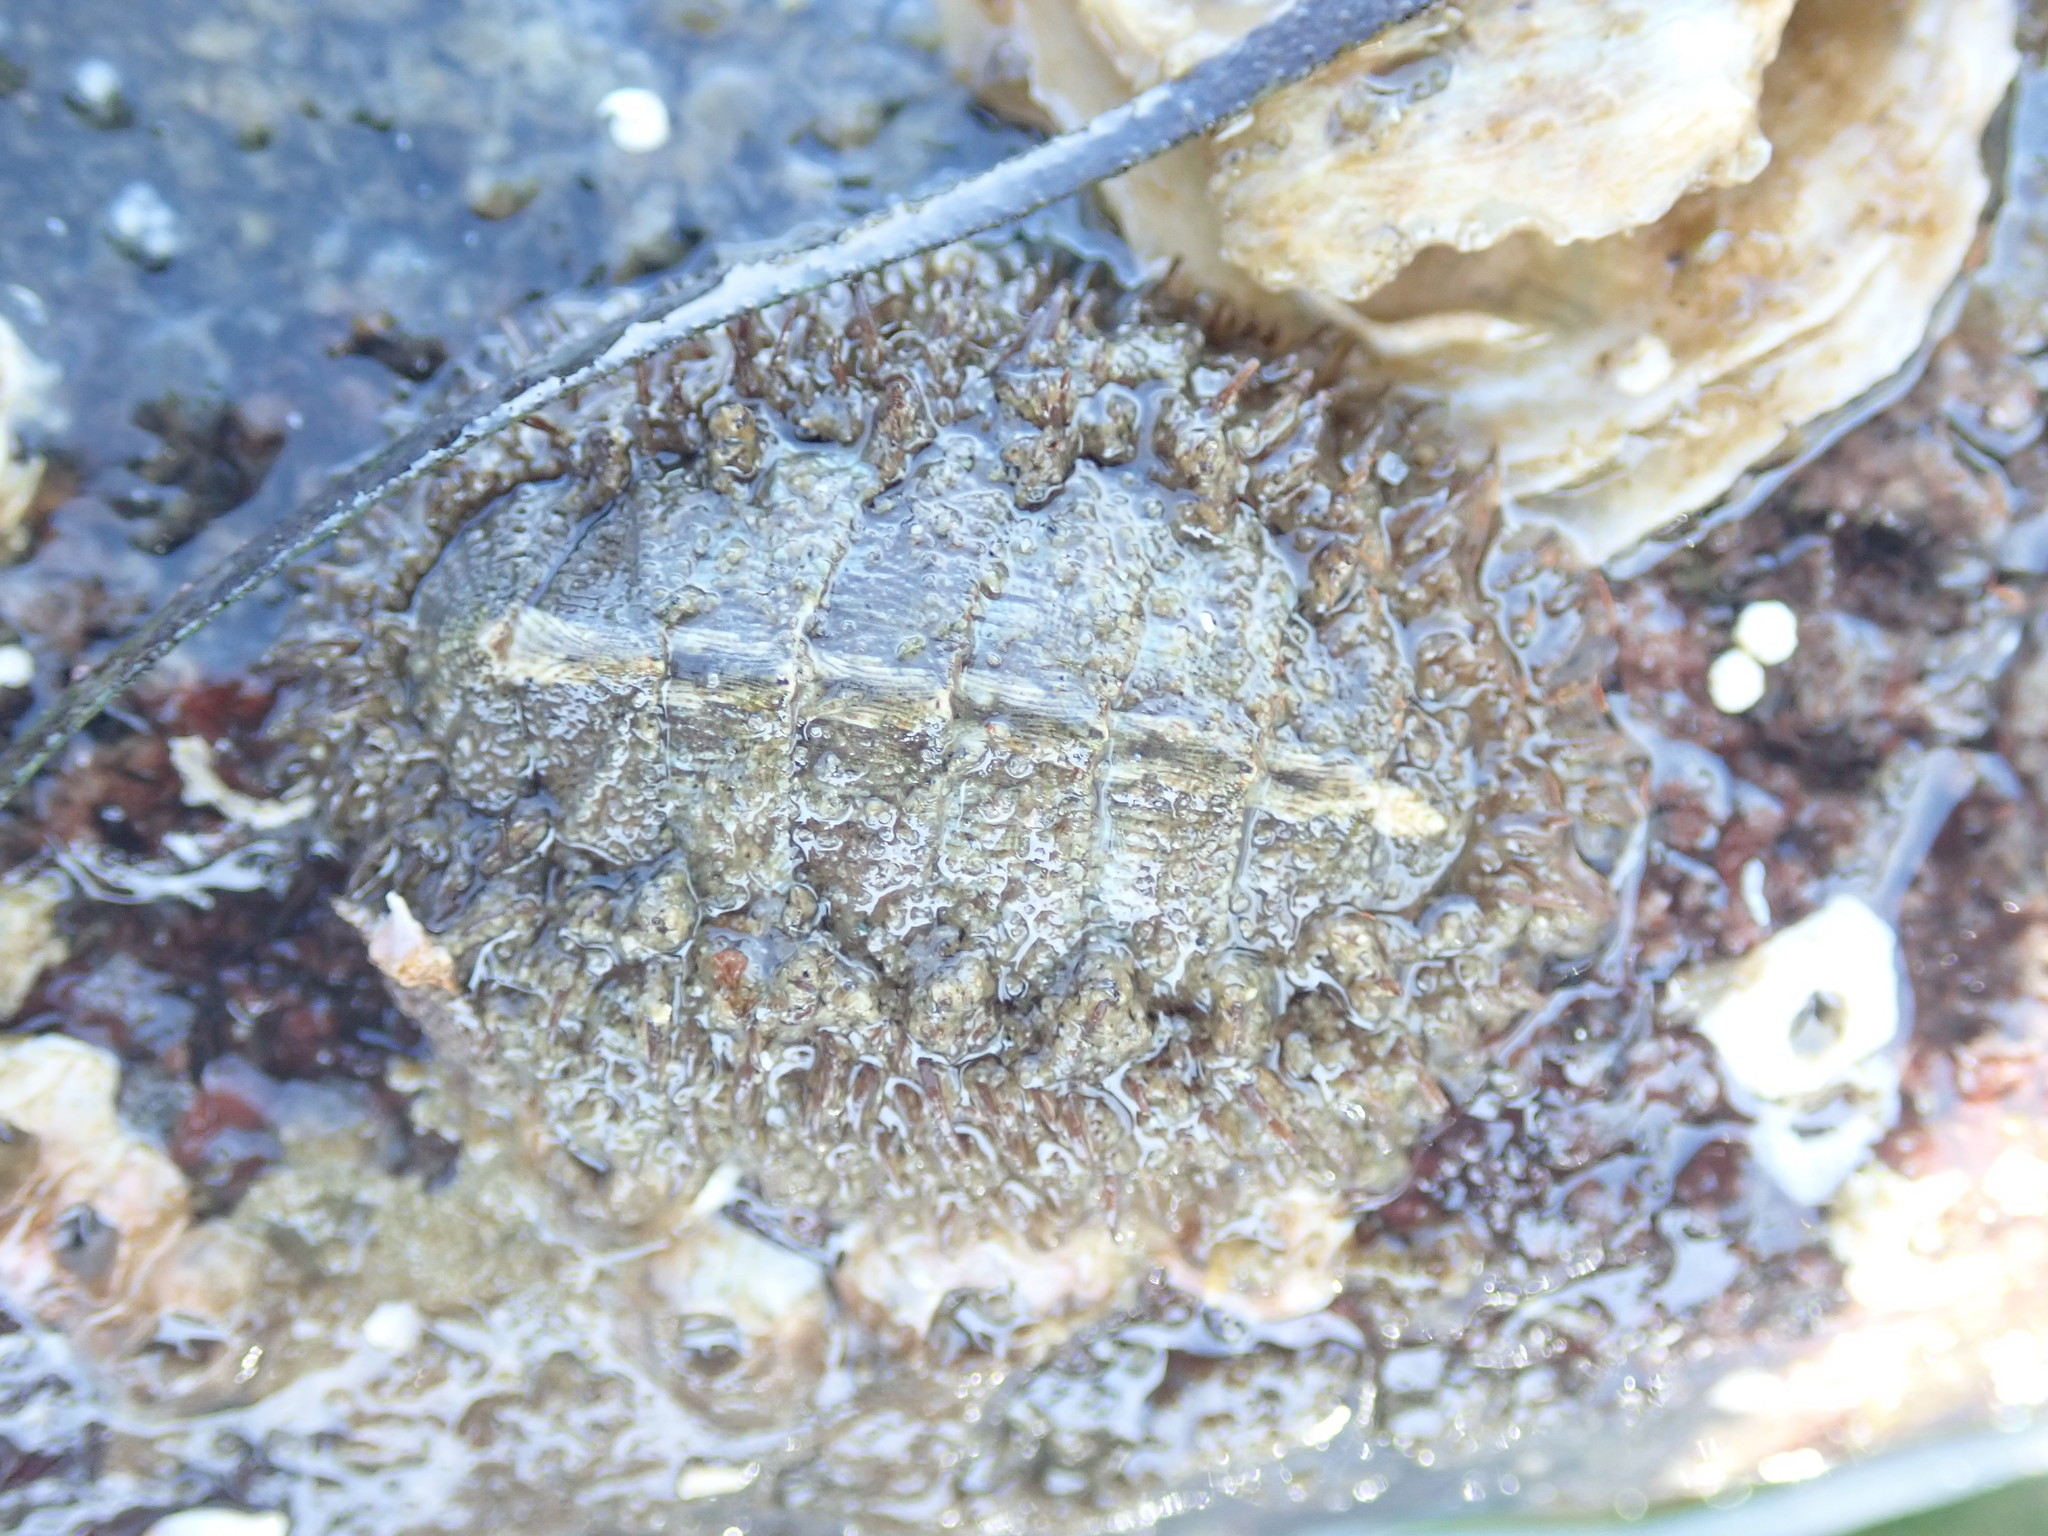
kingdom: Animalia
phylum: Mollusca
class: Polyplacophora
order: Chitonida
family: Mopaliidae
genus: Mopalia
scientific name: Mopalia muscosa
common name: Mossy chiton
